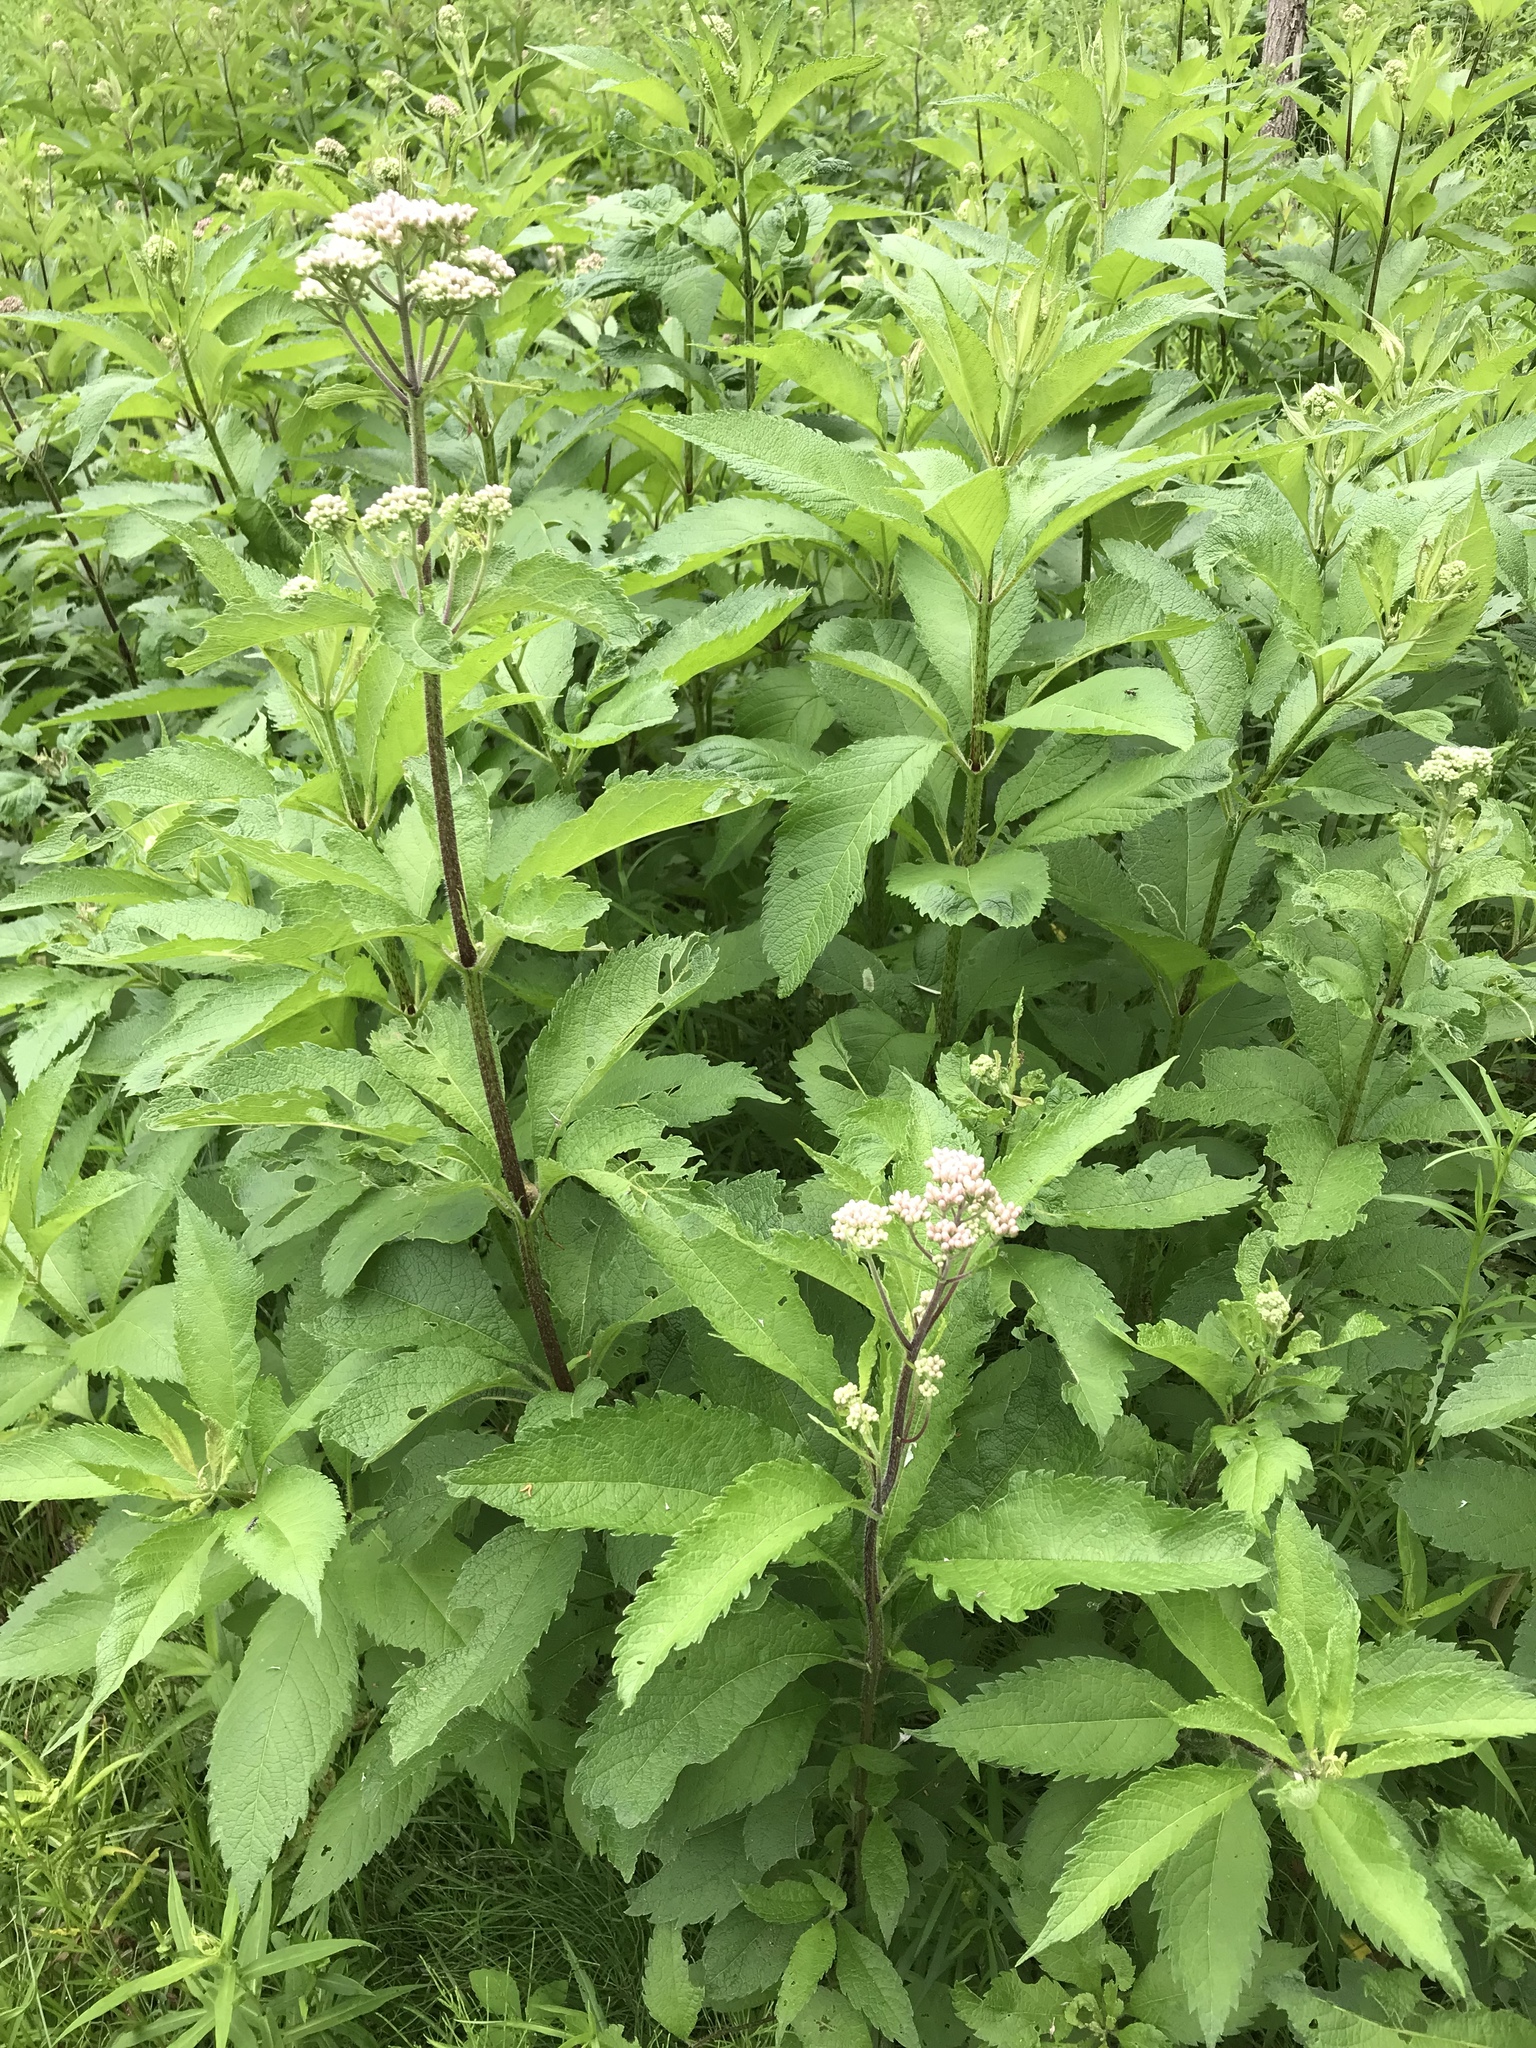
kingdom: Plantae
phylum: Tracheophyta
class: Magnoliopsida
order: Asterales
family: Asteraceae
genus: Eutrochium
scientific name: Eutrochium maculatum
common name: Spotted joe pye weed
